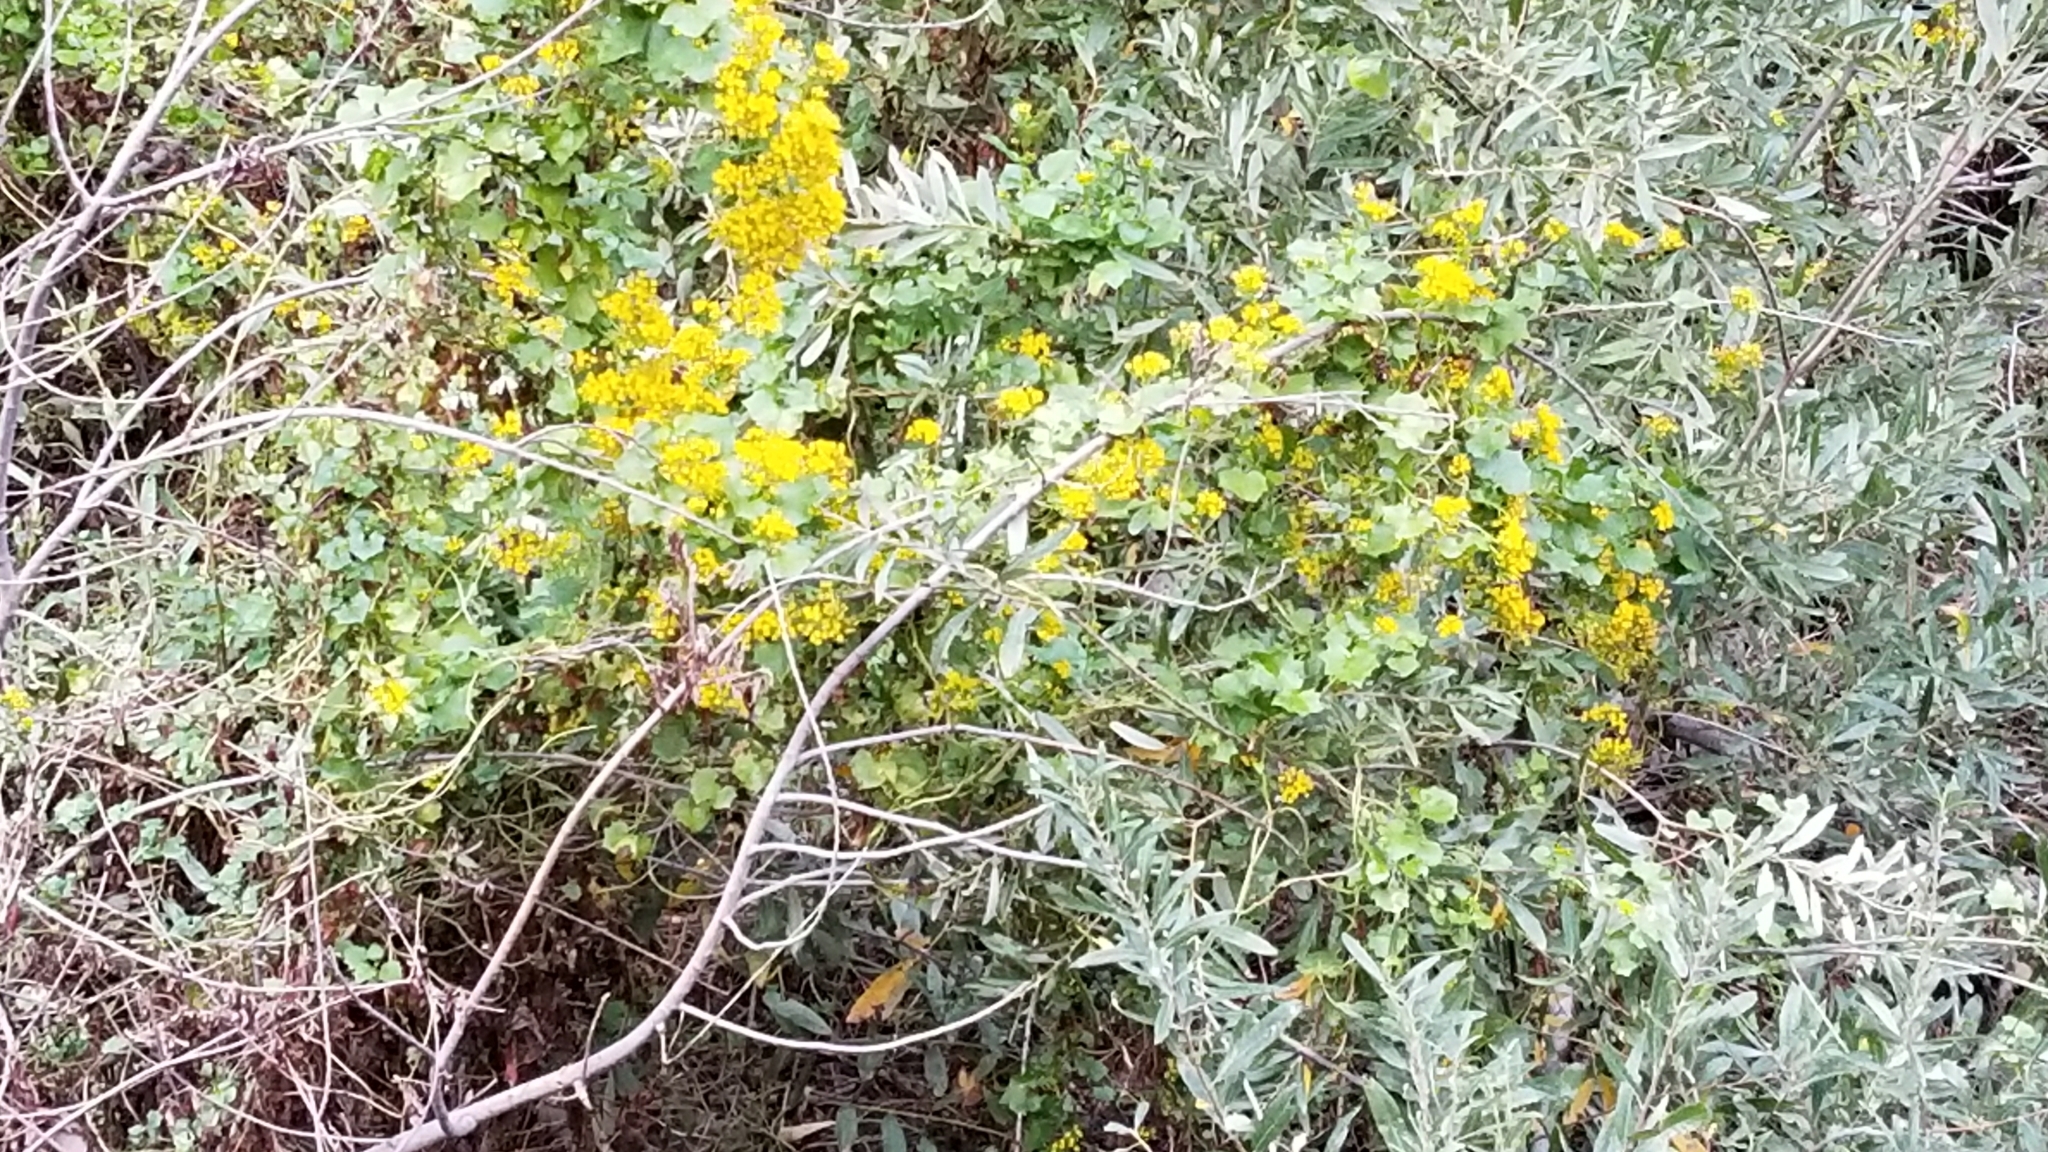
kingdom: Plantae
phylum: Tracheophyta
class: Magnoliopsida
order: Asterales
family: Asteraceae
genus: Delairea
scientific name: Delairea odorata
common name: Cape-ivy
